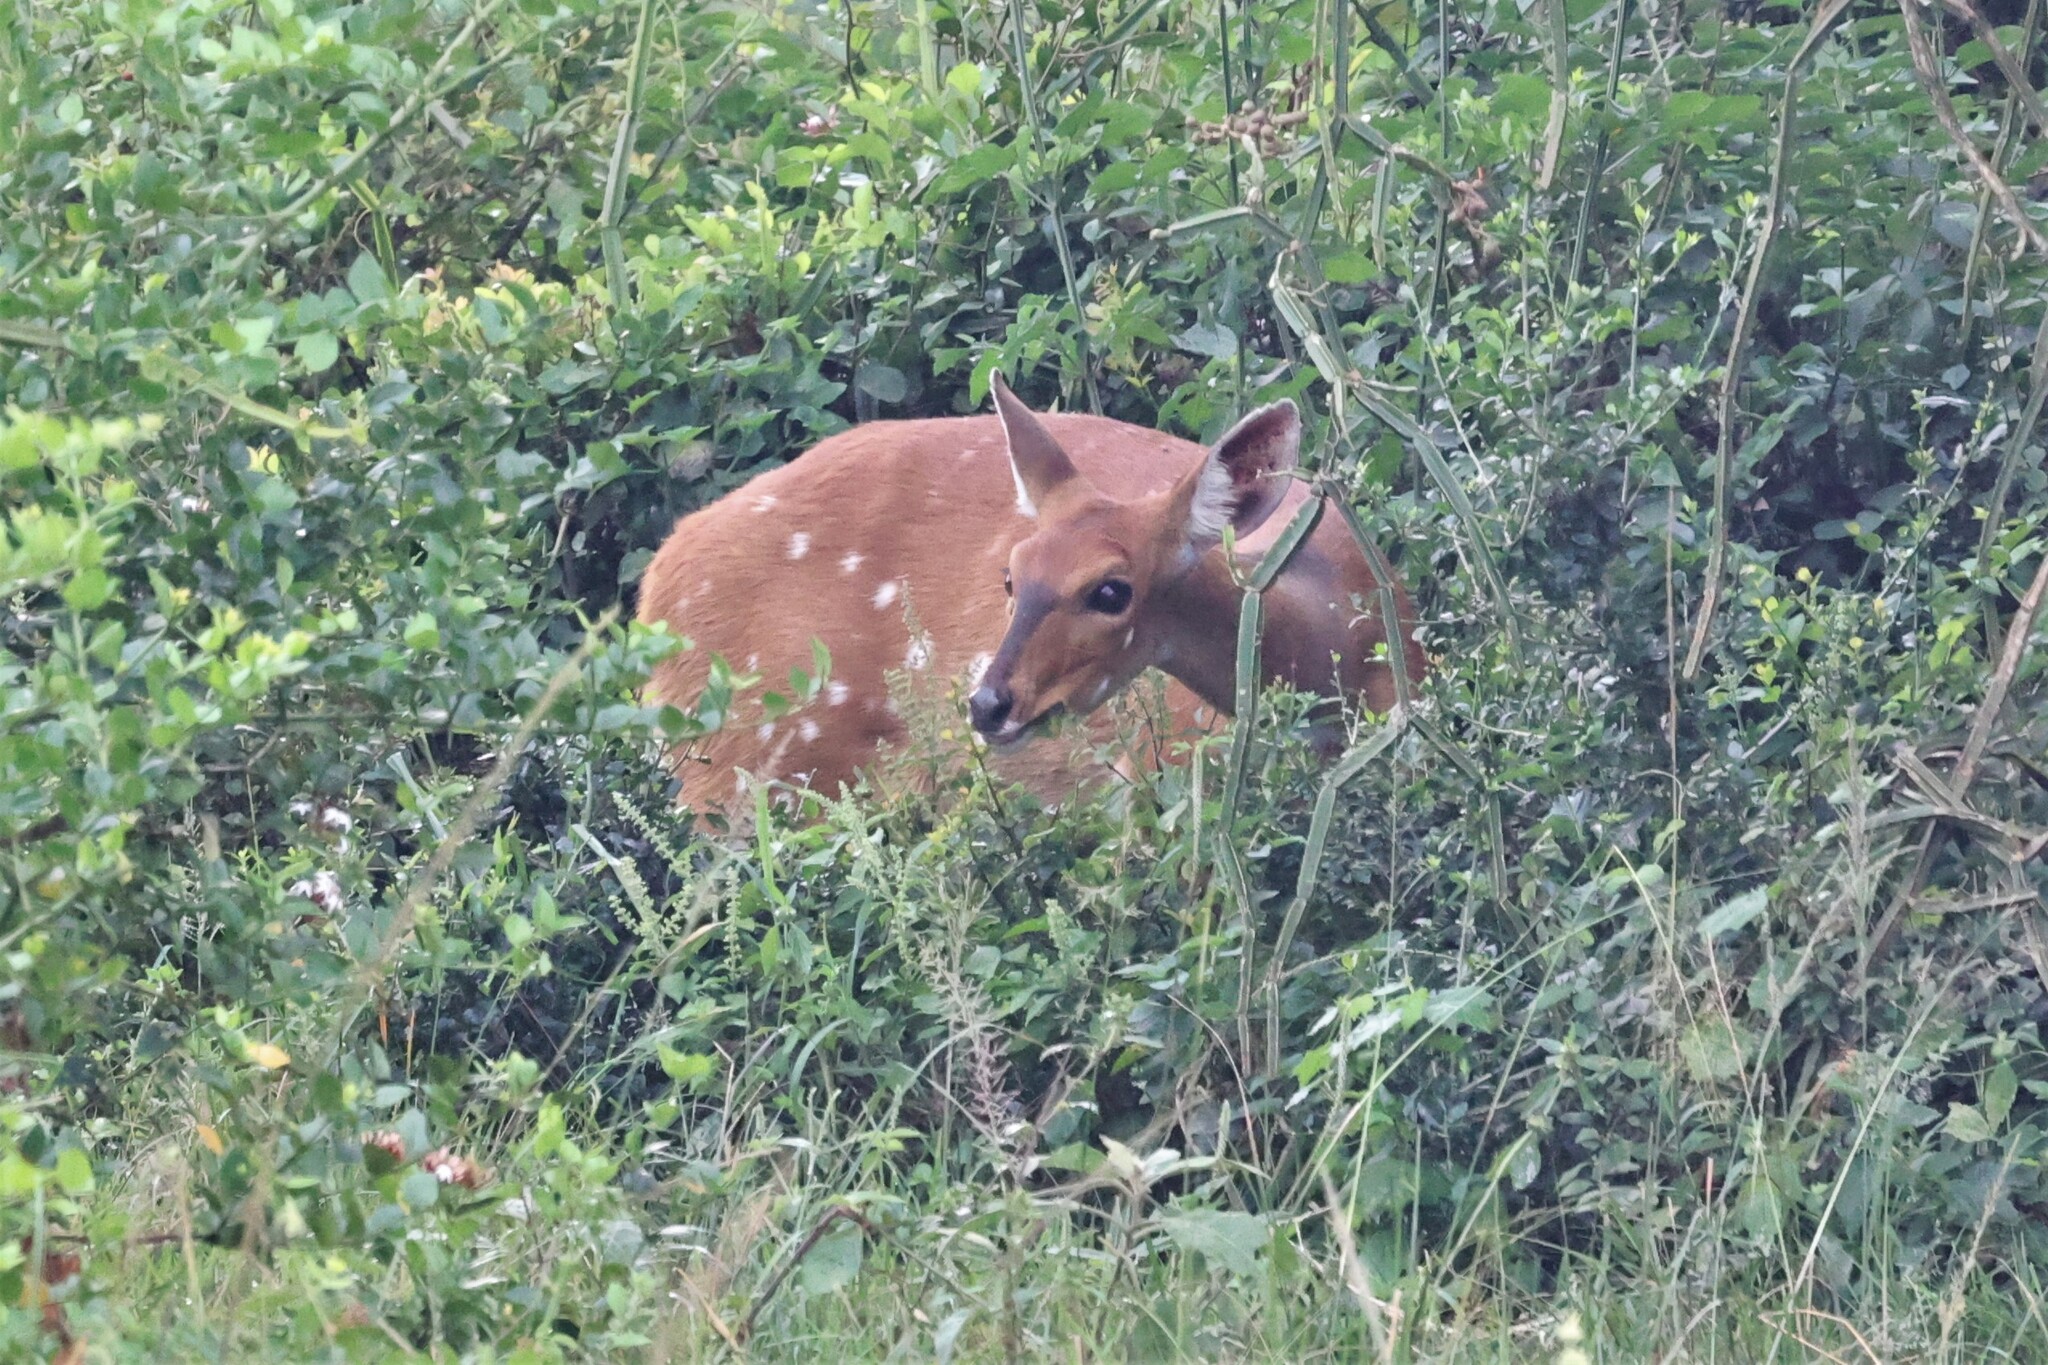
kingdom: Animalia
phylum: Chordata
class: Mammalia
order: Artiodactyla
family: Bovidae
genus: Tragelaphus
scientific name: Tragelaphus scriptus
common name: Bushbuck
